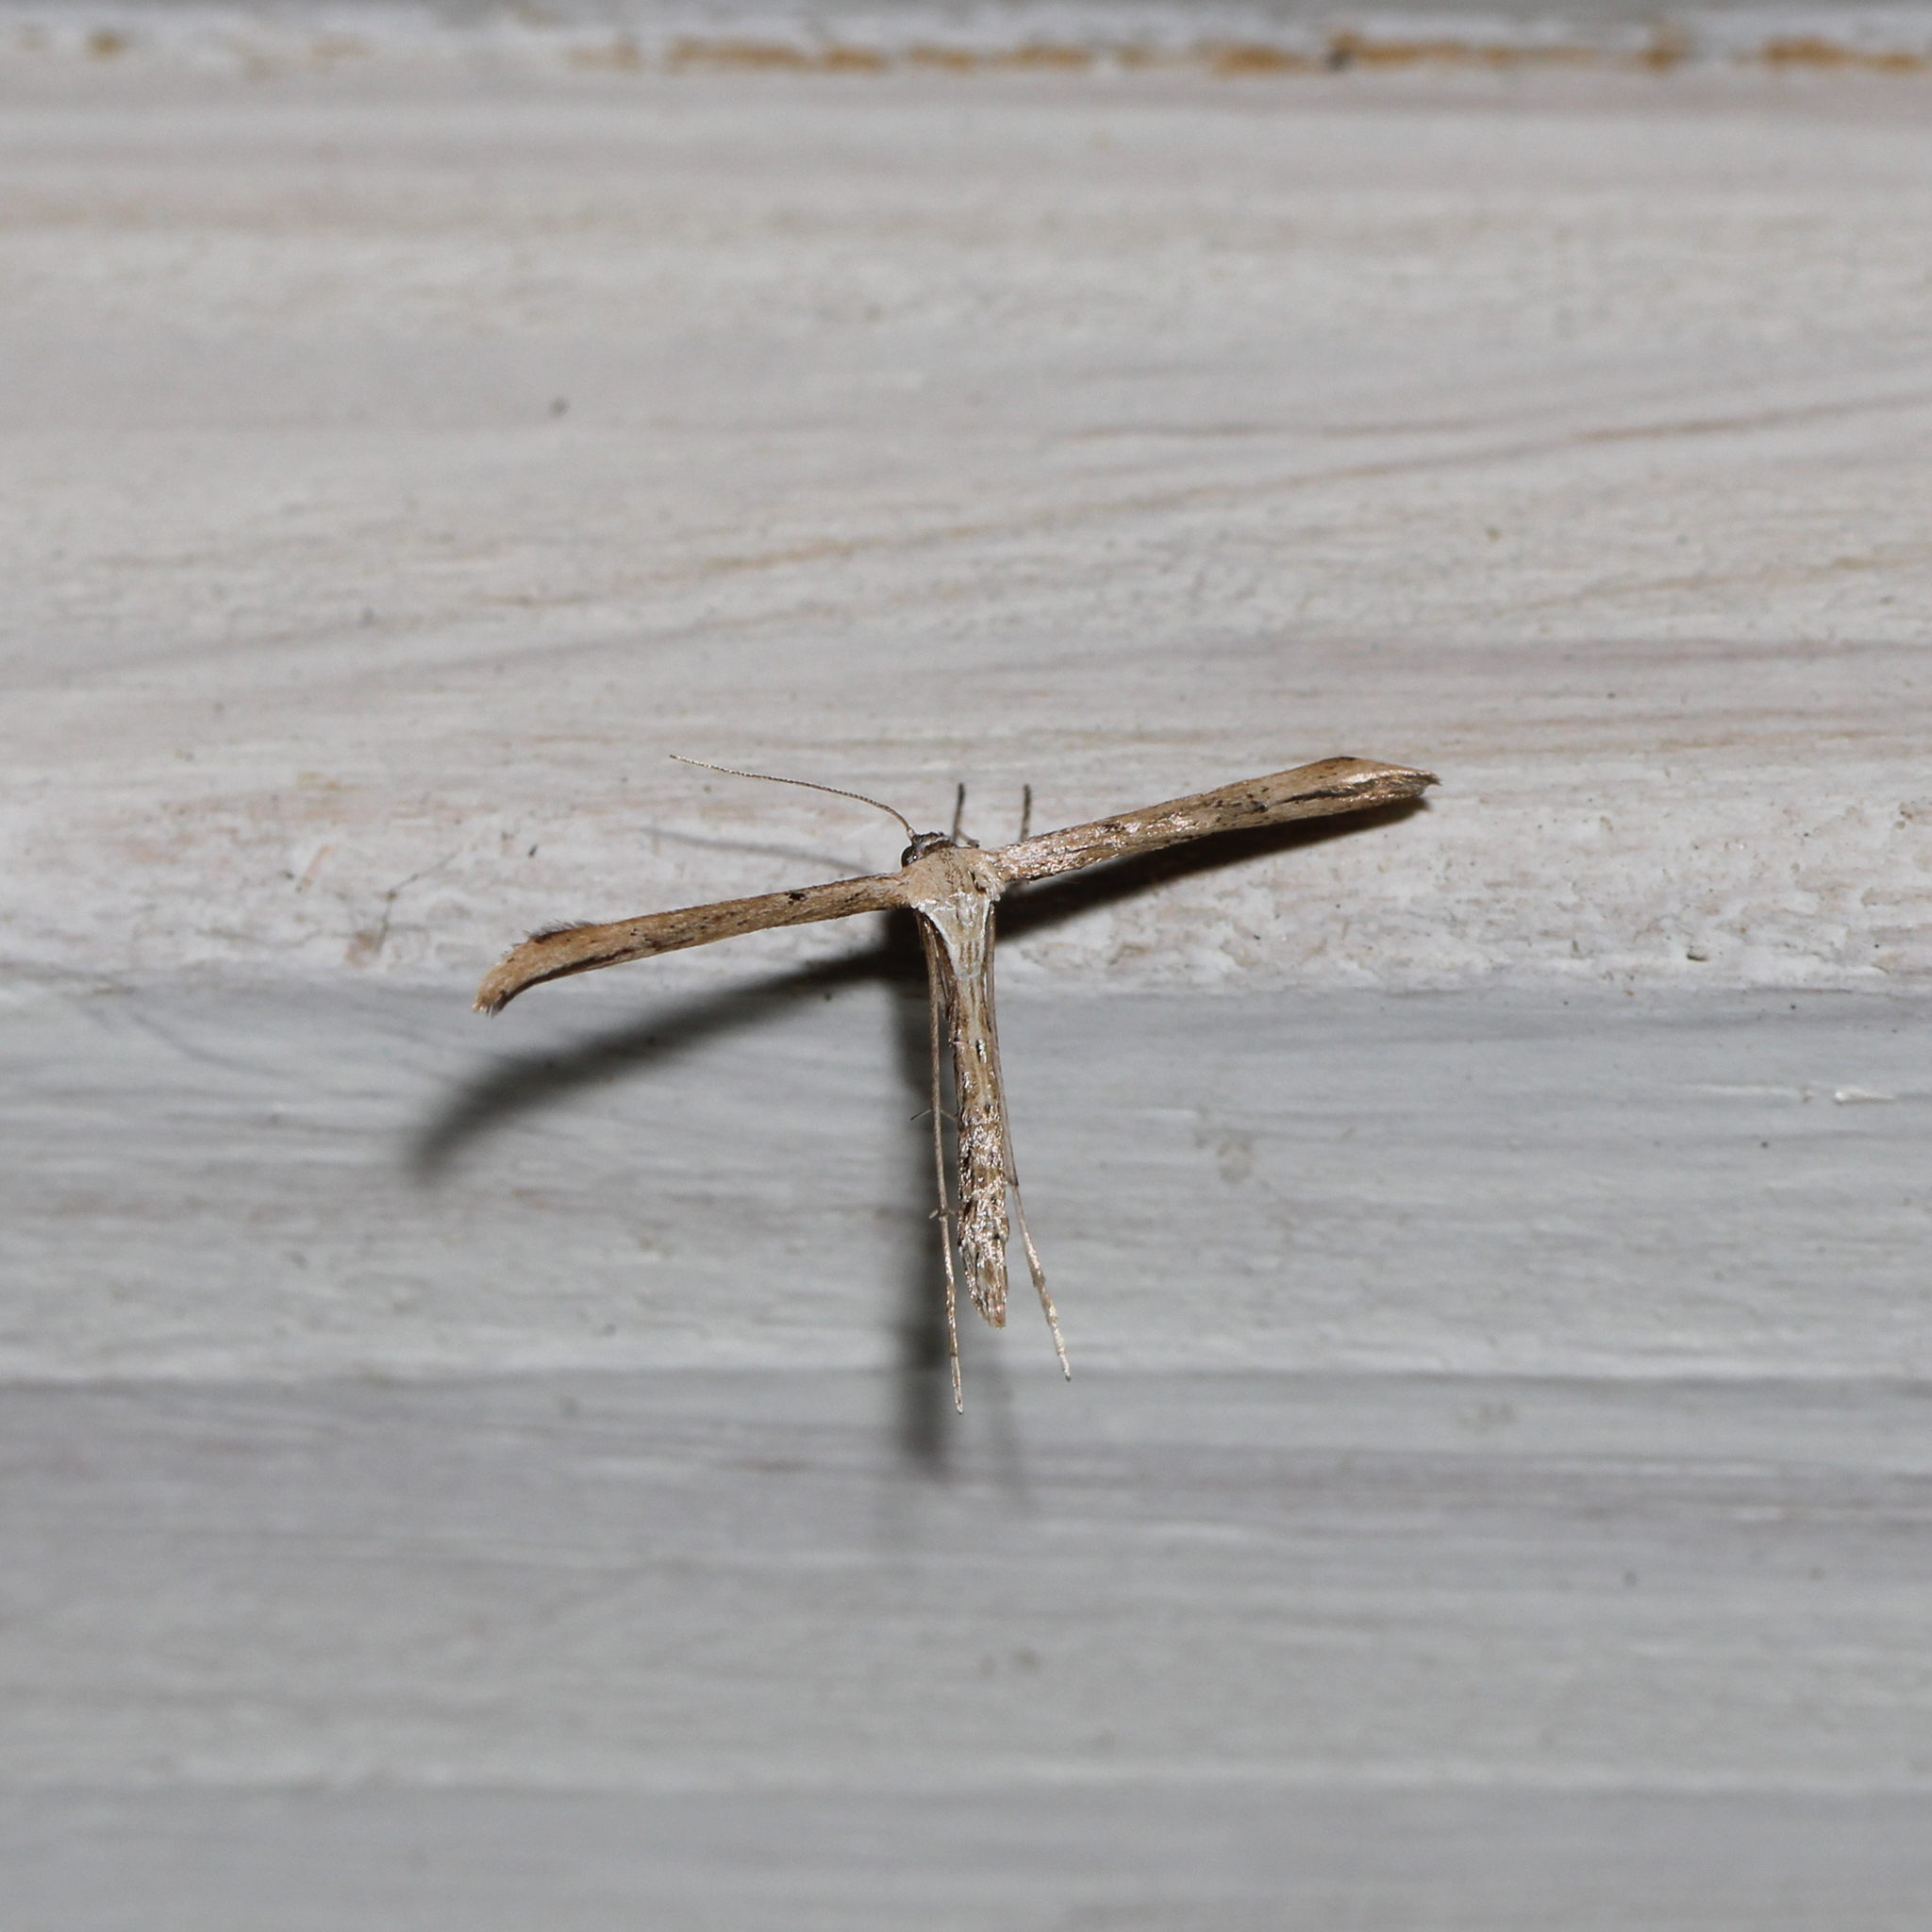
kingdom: Animalia
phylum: Arthropoda
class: Insecta
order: Lepidoptera
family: Pterophoridae
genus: Emmelina
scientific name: Emmelina monodactyla
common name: Common plume
